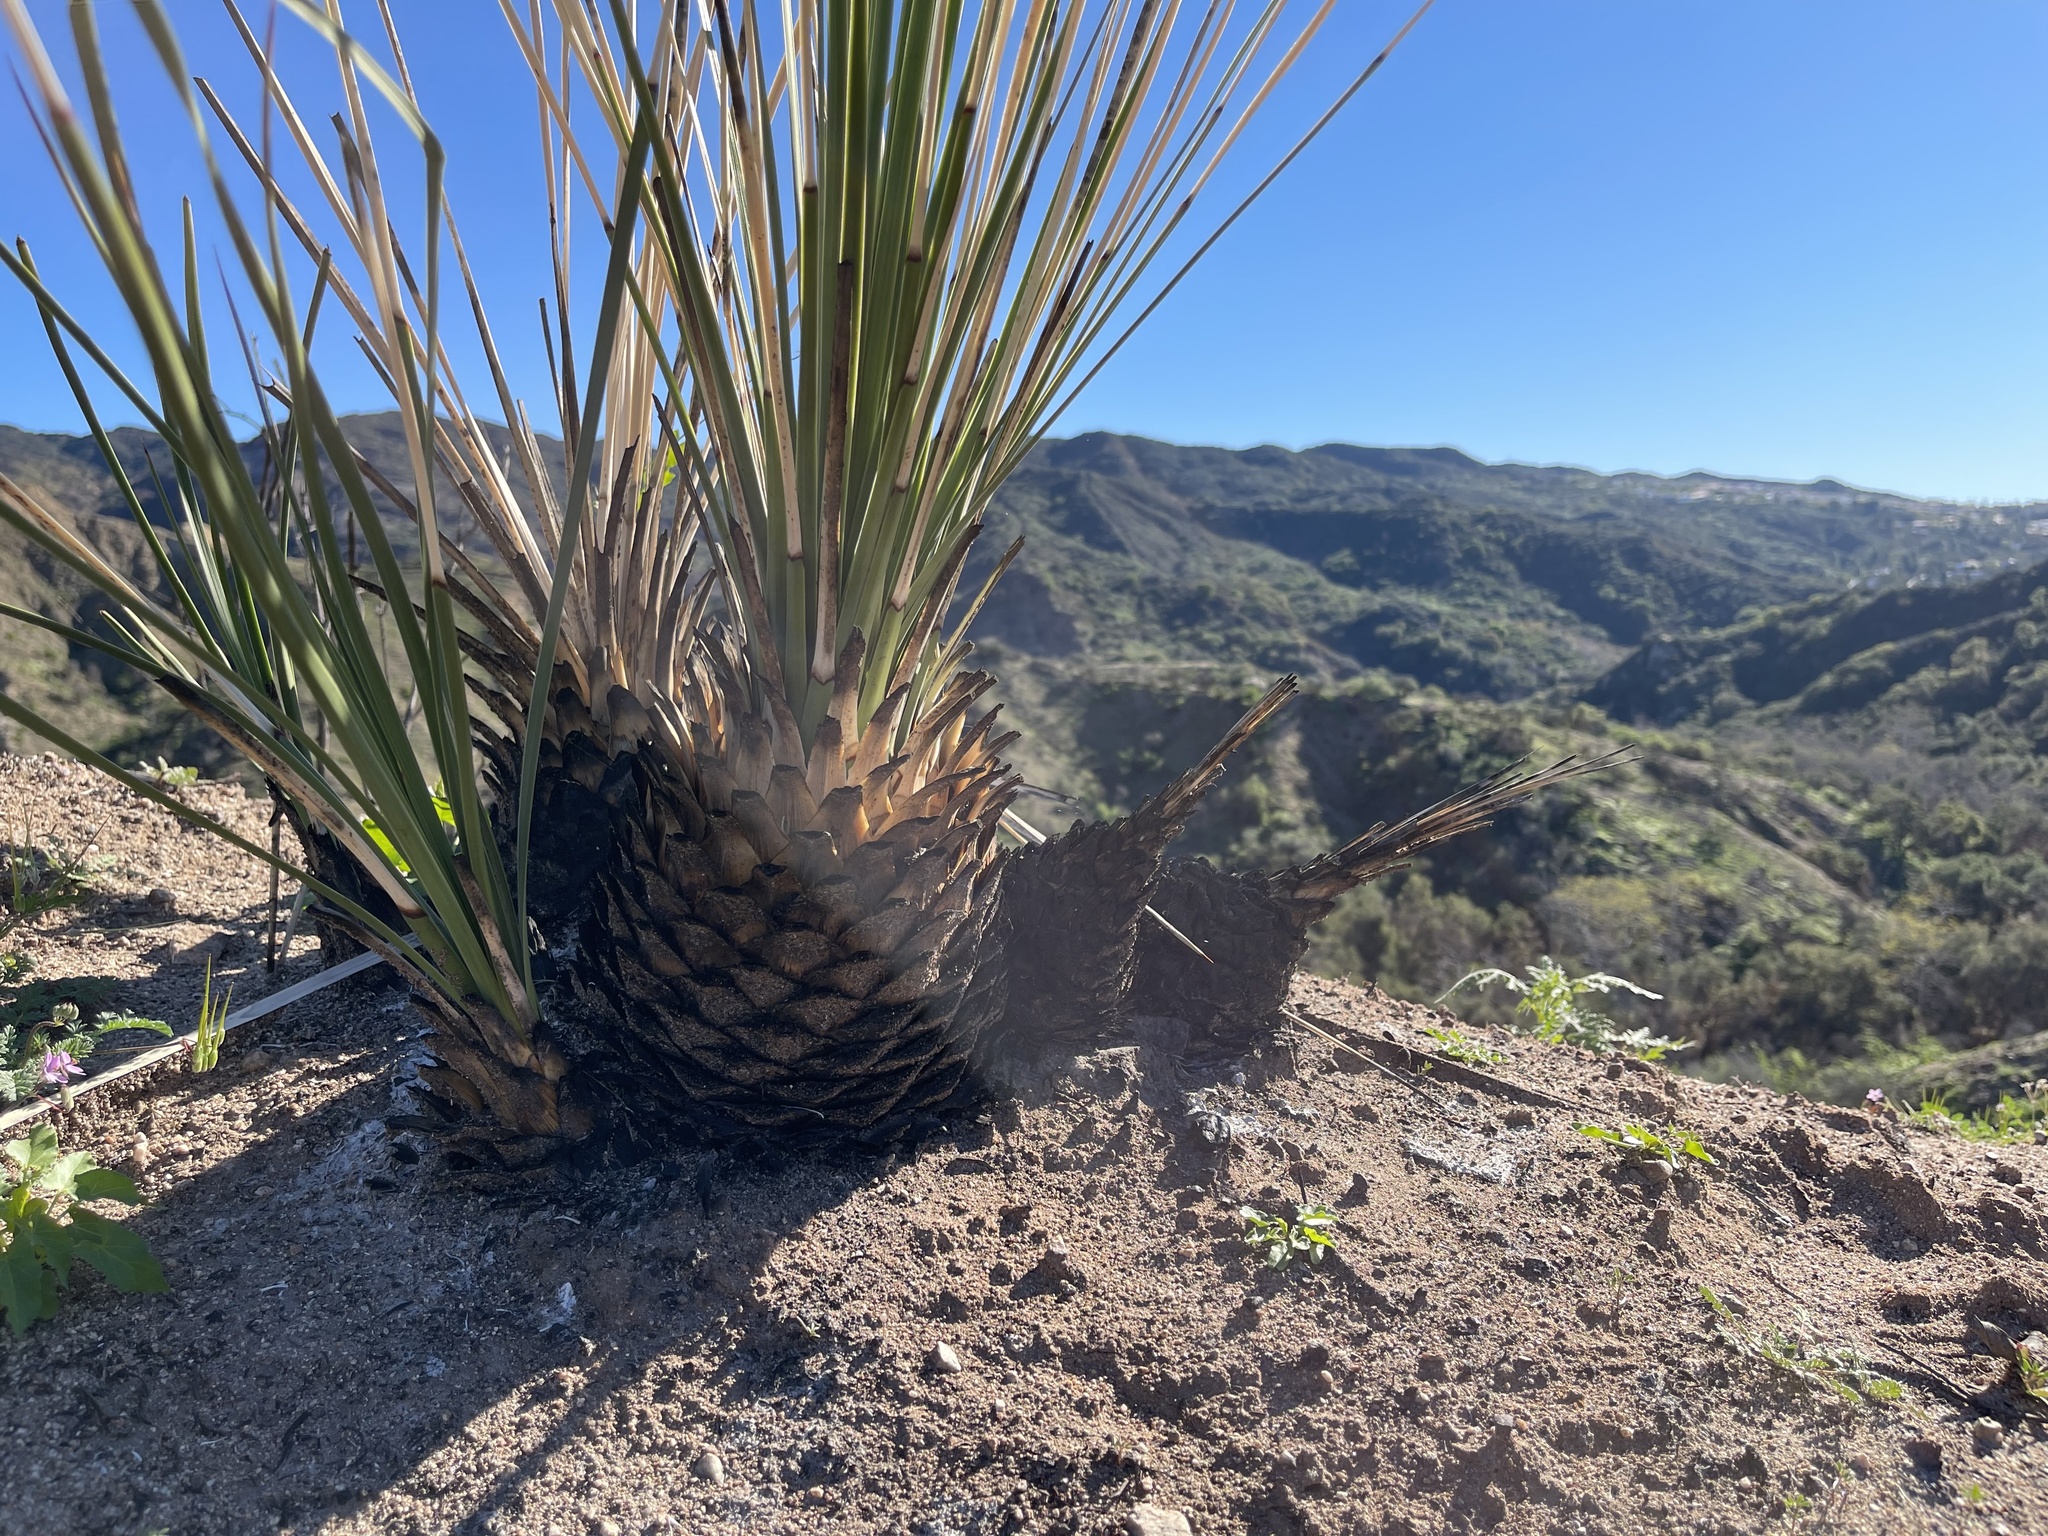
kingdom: Plantae
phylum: Tracheophyta
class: Liliopsida
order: Asparagales
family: Asparagaceae
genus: Hesperoyucca
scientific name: Hesperoyucca whipplei
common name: Our lord's-candle
